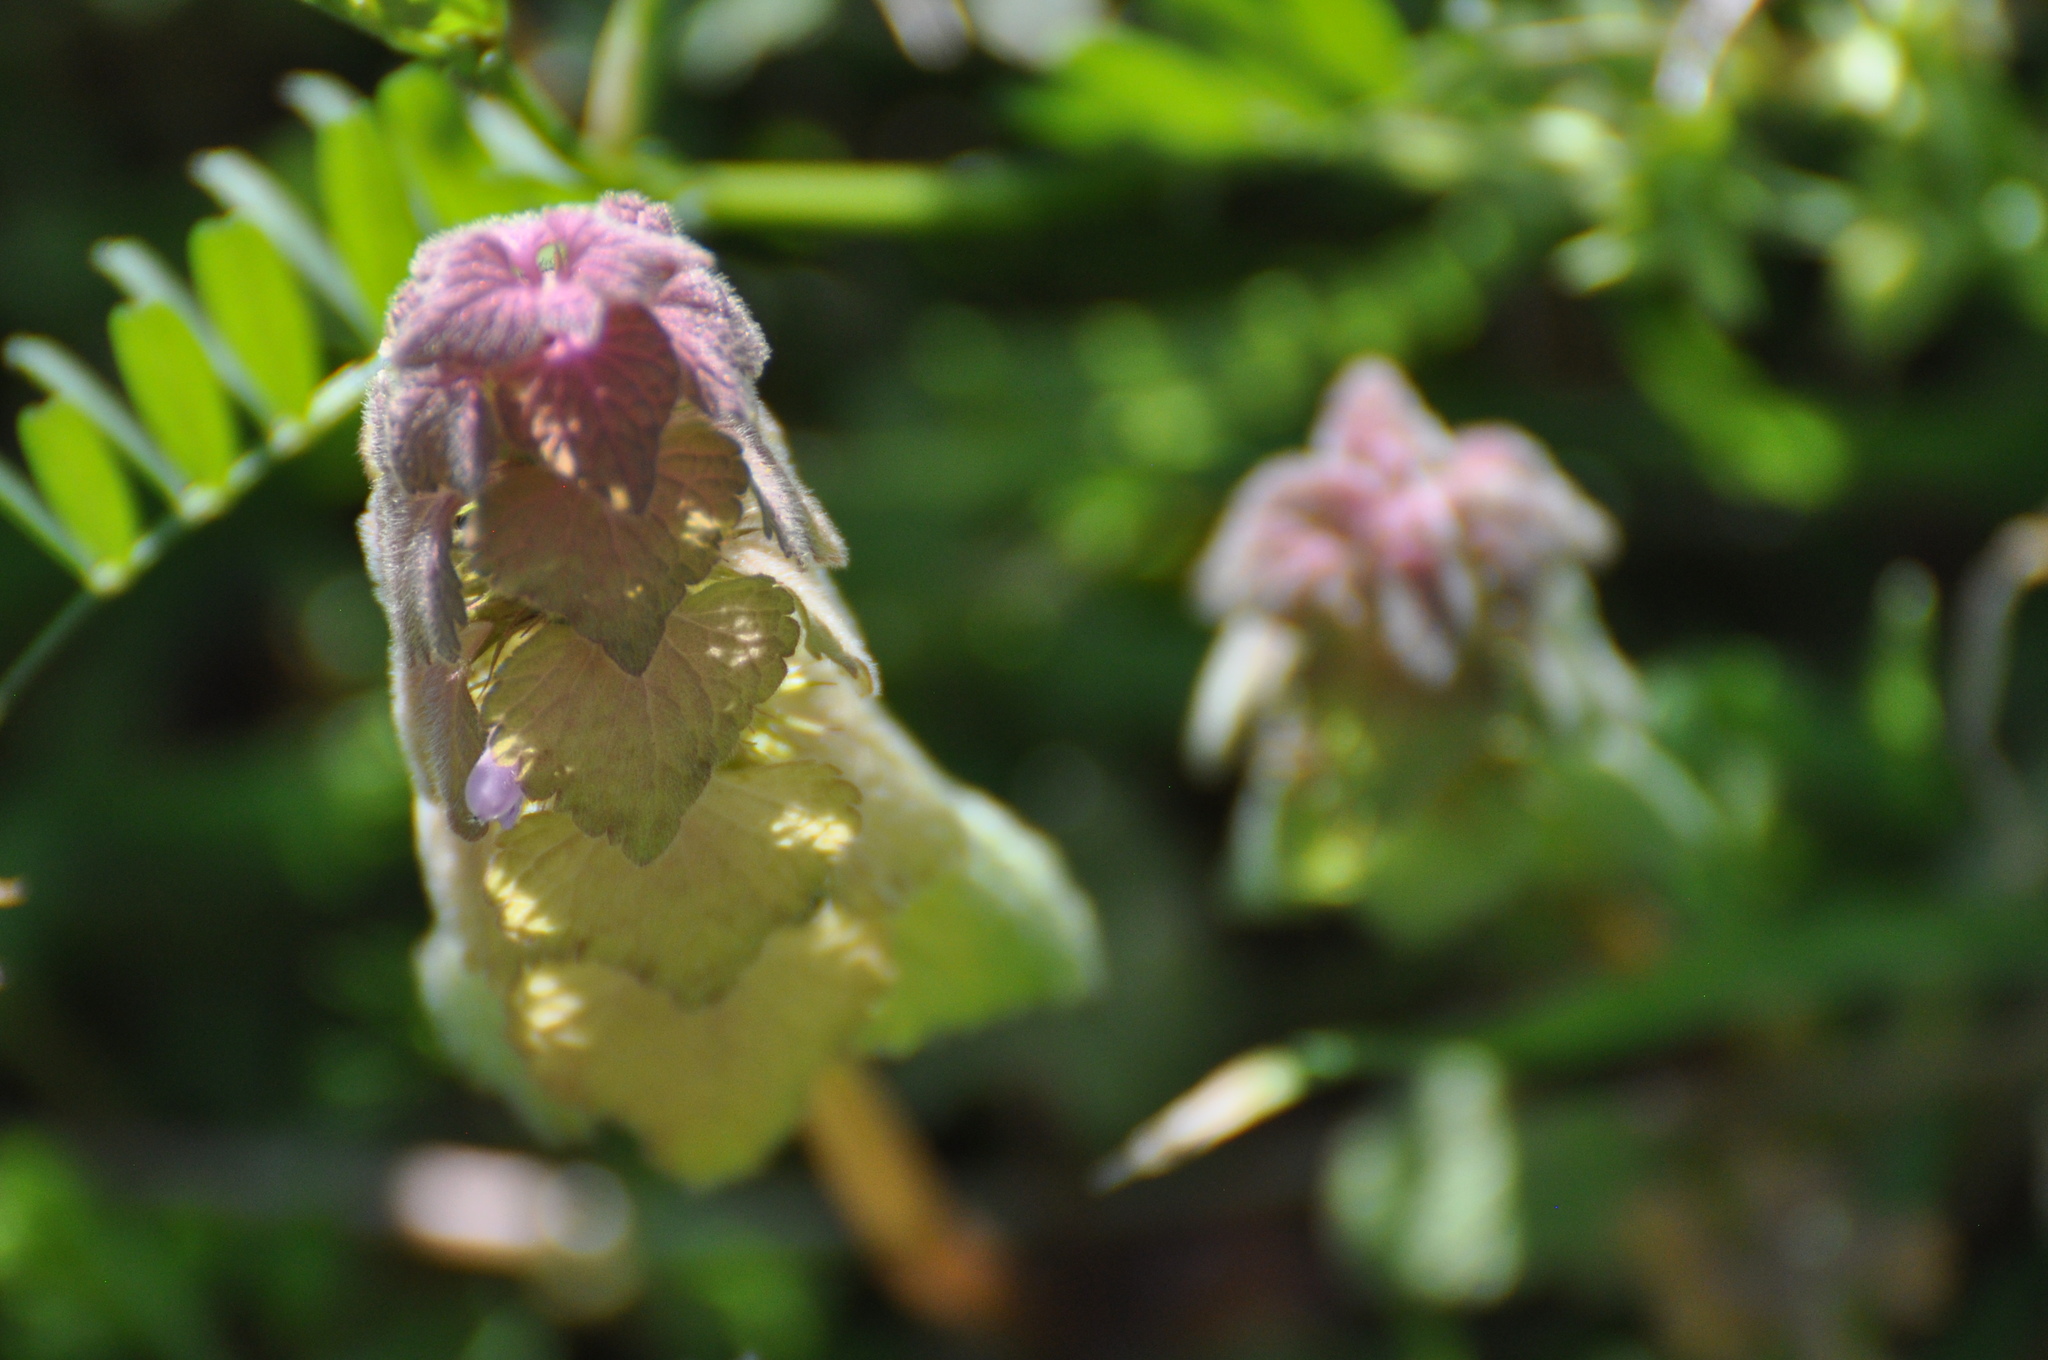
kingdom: Plantae
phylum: Tracheophyta
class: Magnoliopsida
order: Lamiales
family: Lamiaceae
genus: Lamium
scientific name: Lamium purpureum
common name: Red dead-nettle
